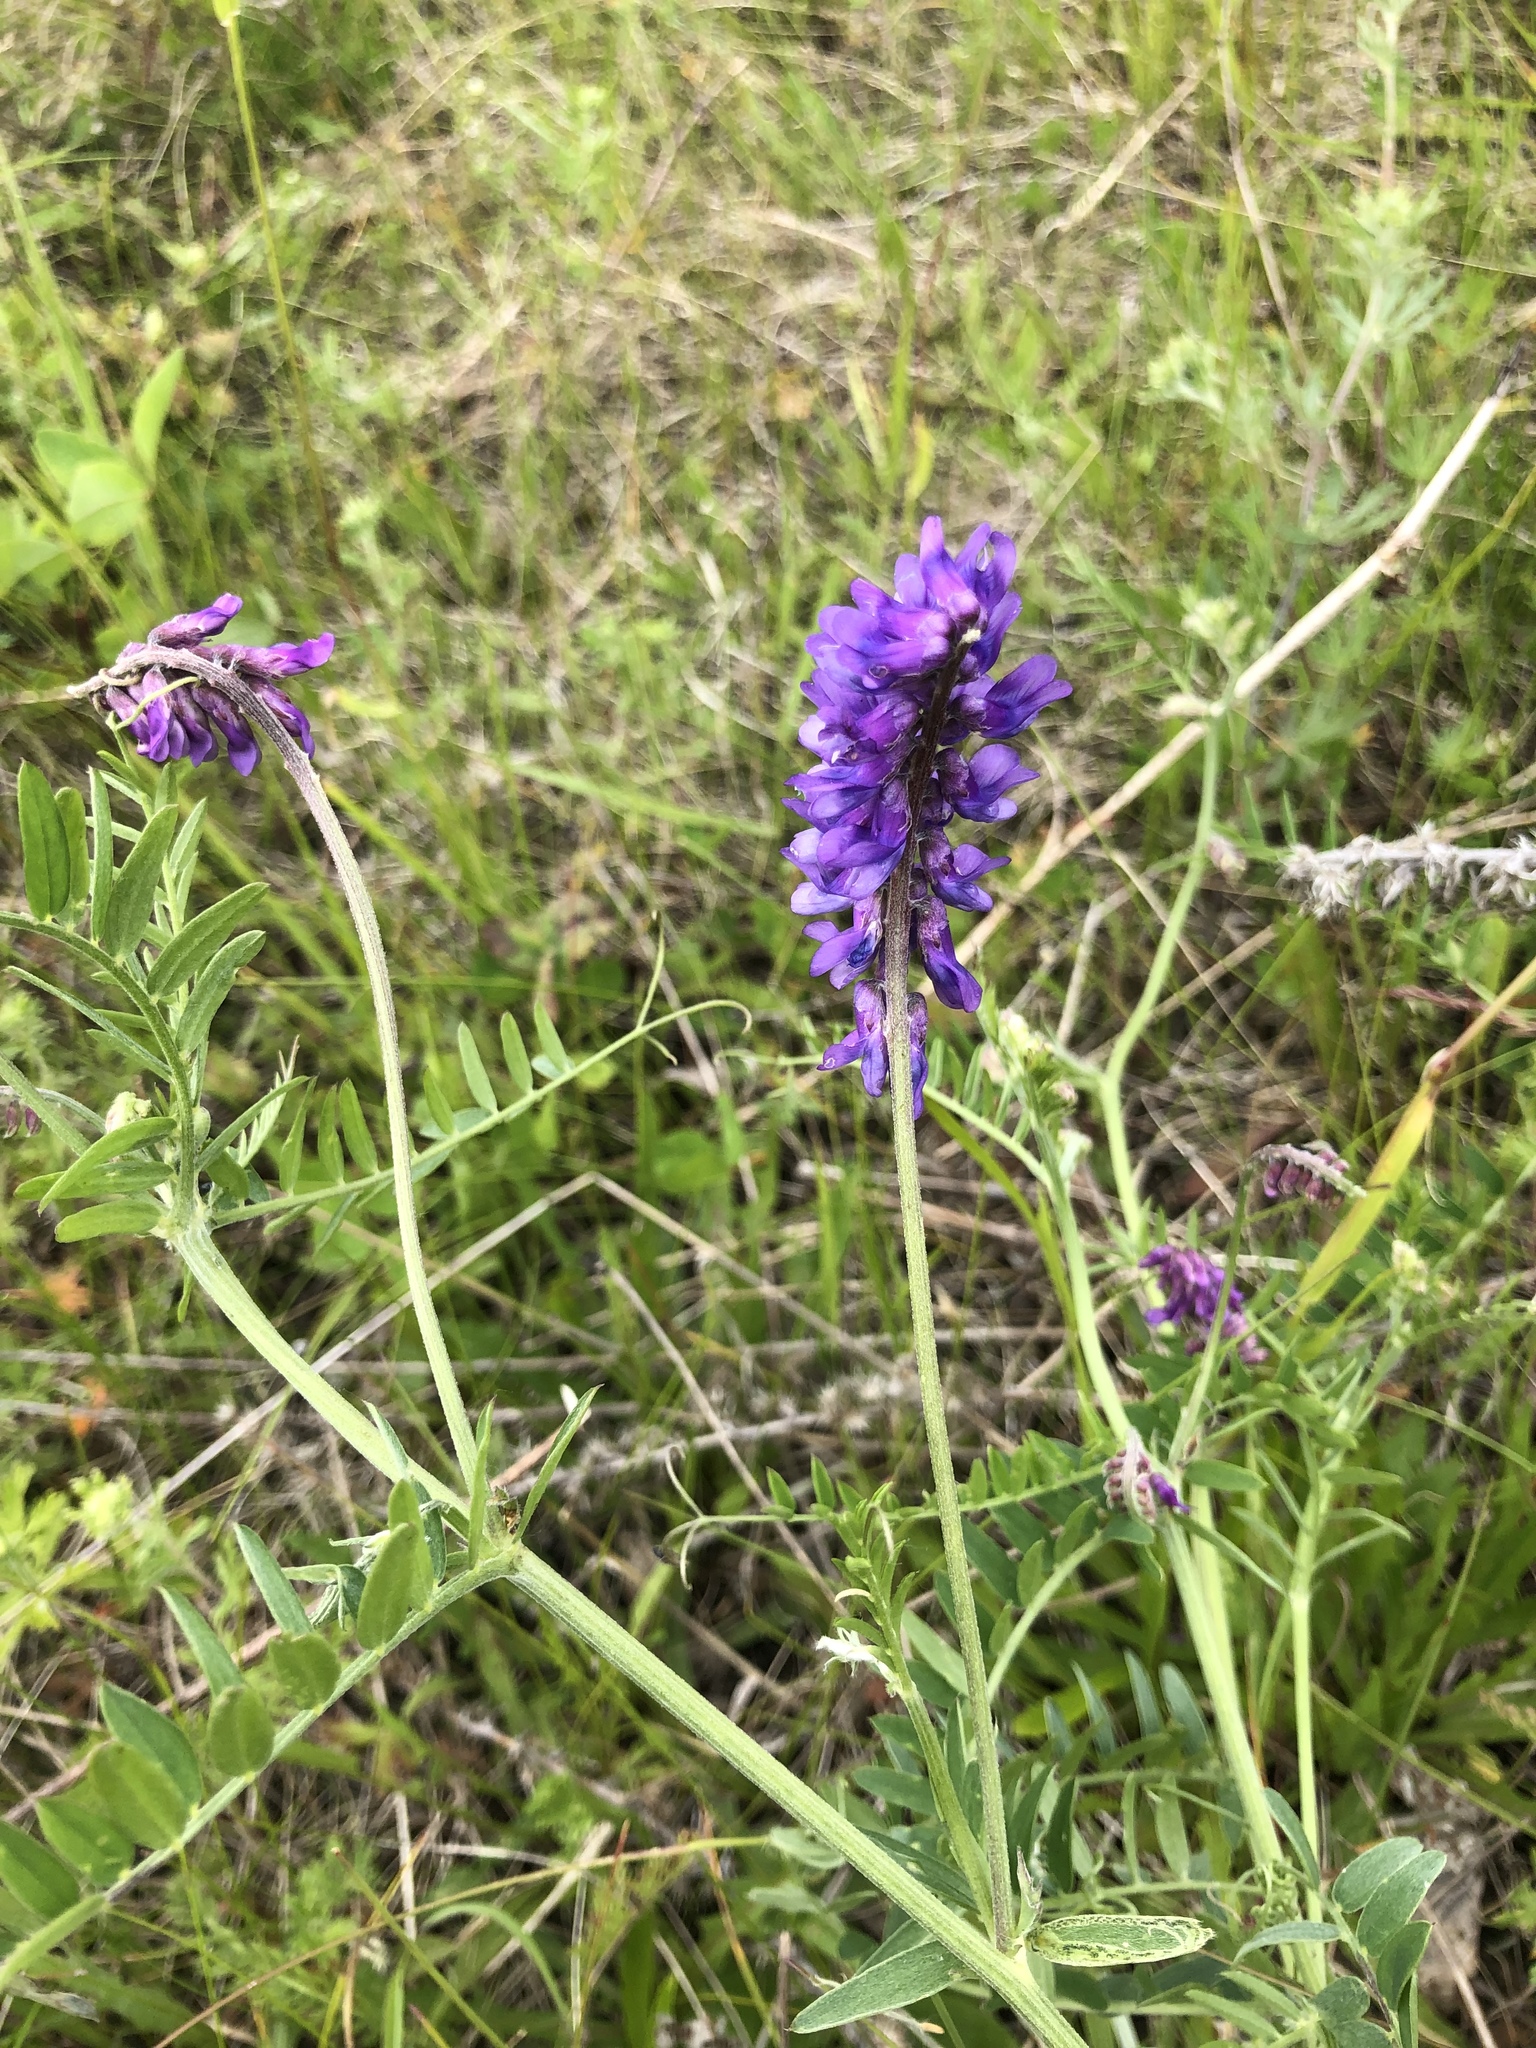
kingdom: Plantae
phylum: Tracheophyta
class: Magnoliopsida
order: Fabales
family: Fabaceae
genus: Vicia
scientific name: Vicia cracca
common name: Bird vetch
